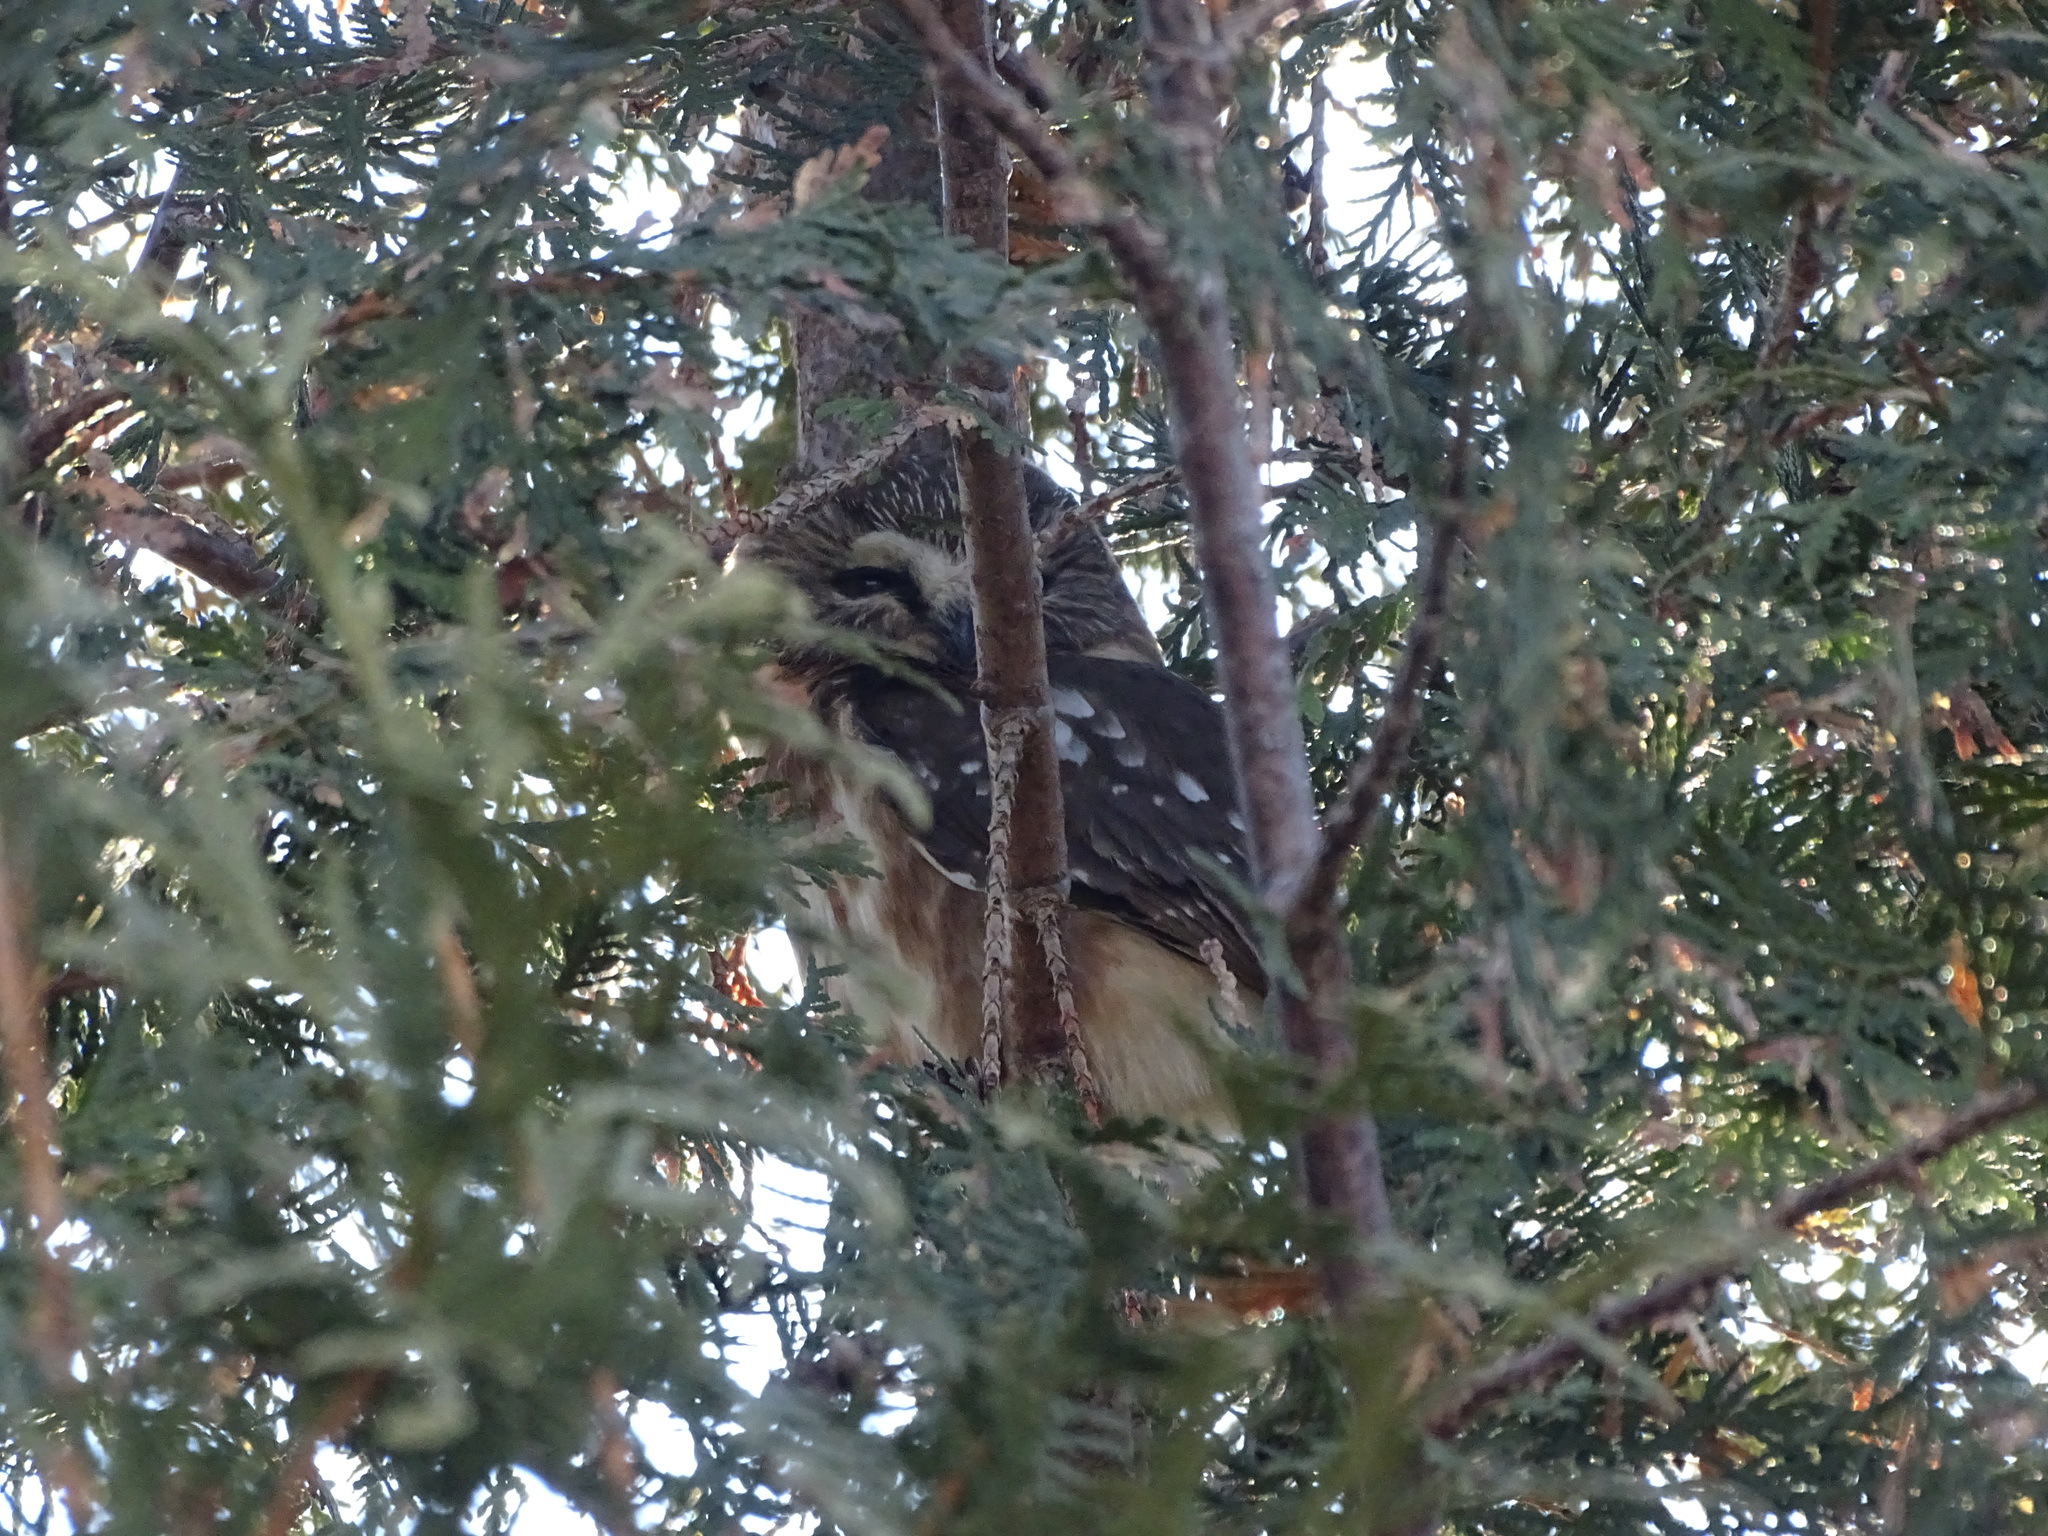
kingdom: Animalia
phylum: Chordata
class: Aves
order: Strigiformes
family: Strigidae
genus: Aegolius
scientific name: Aegolius acadicus
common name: Northern saw-whet owl
